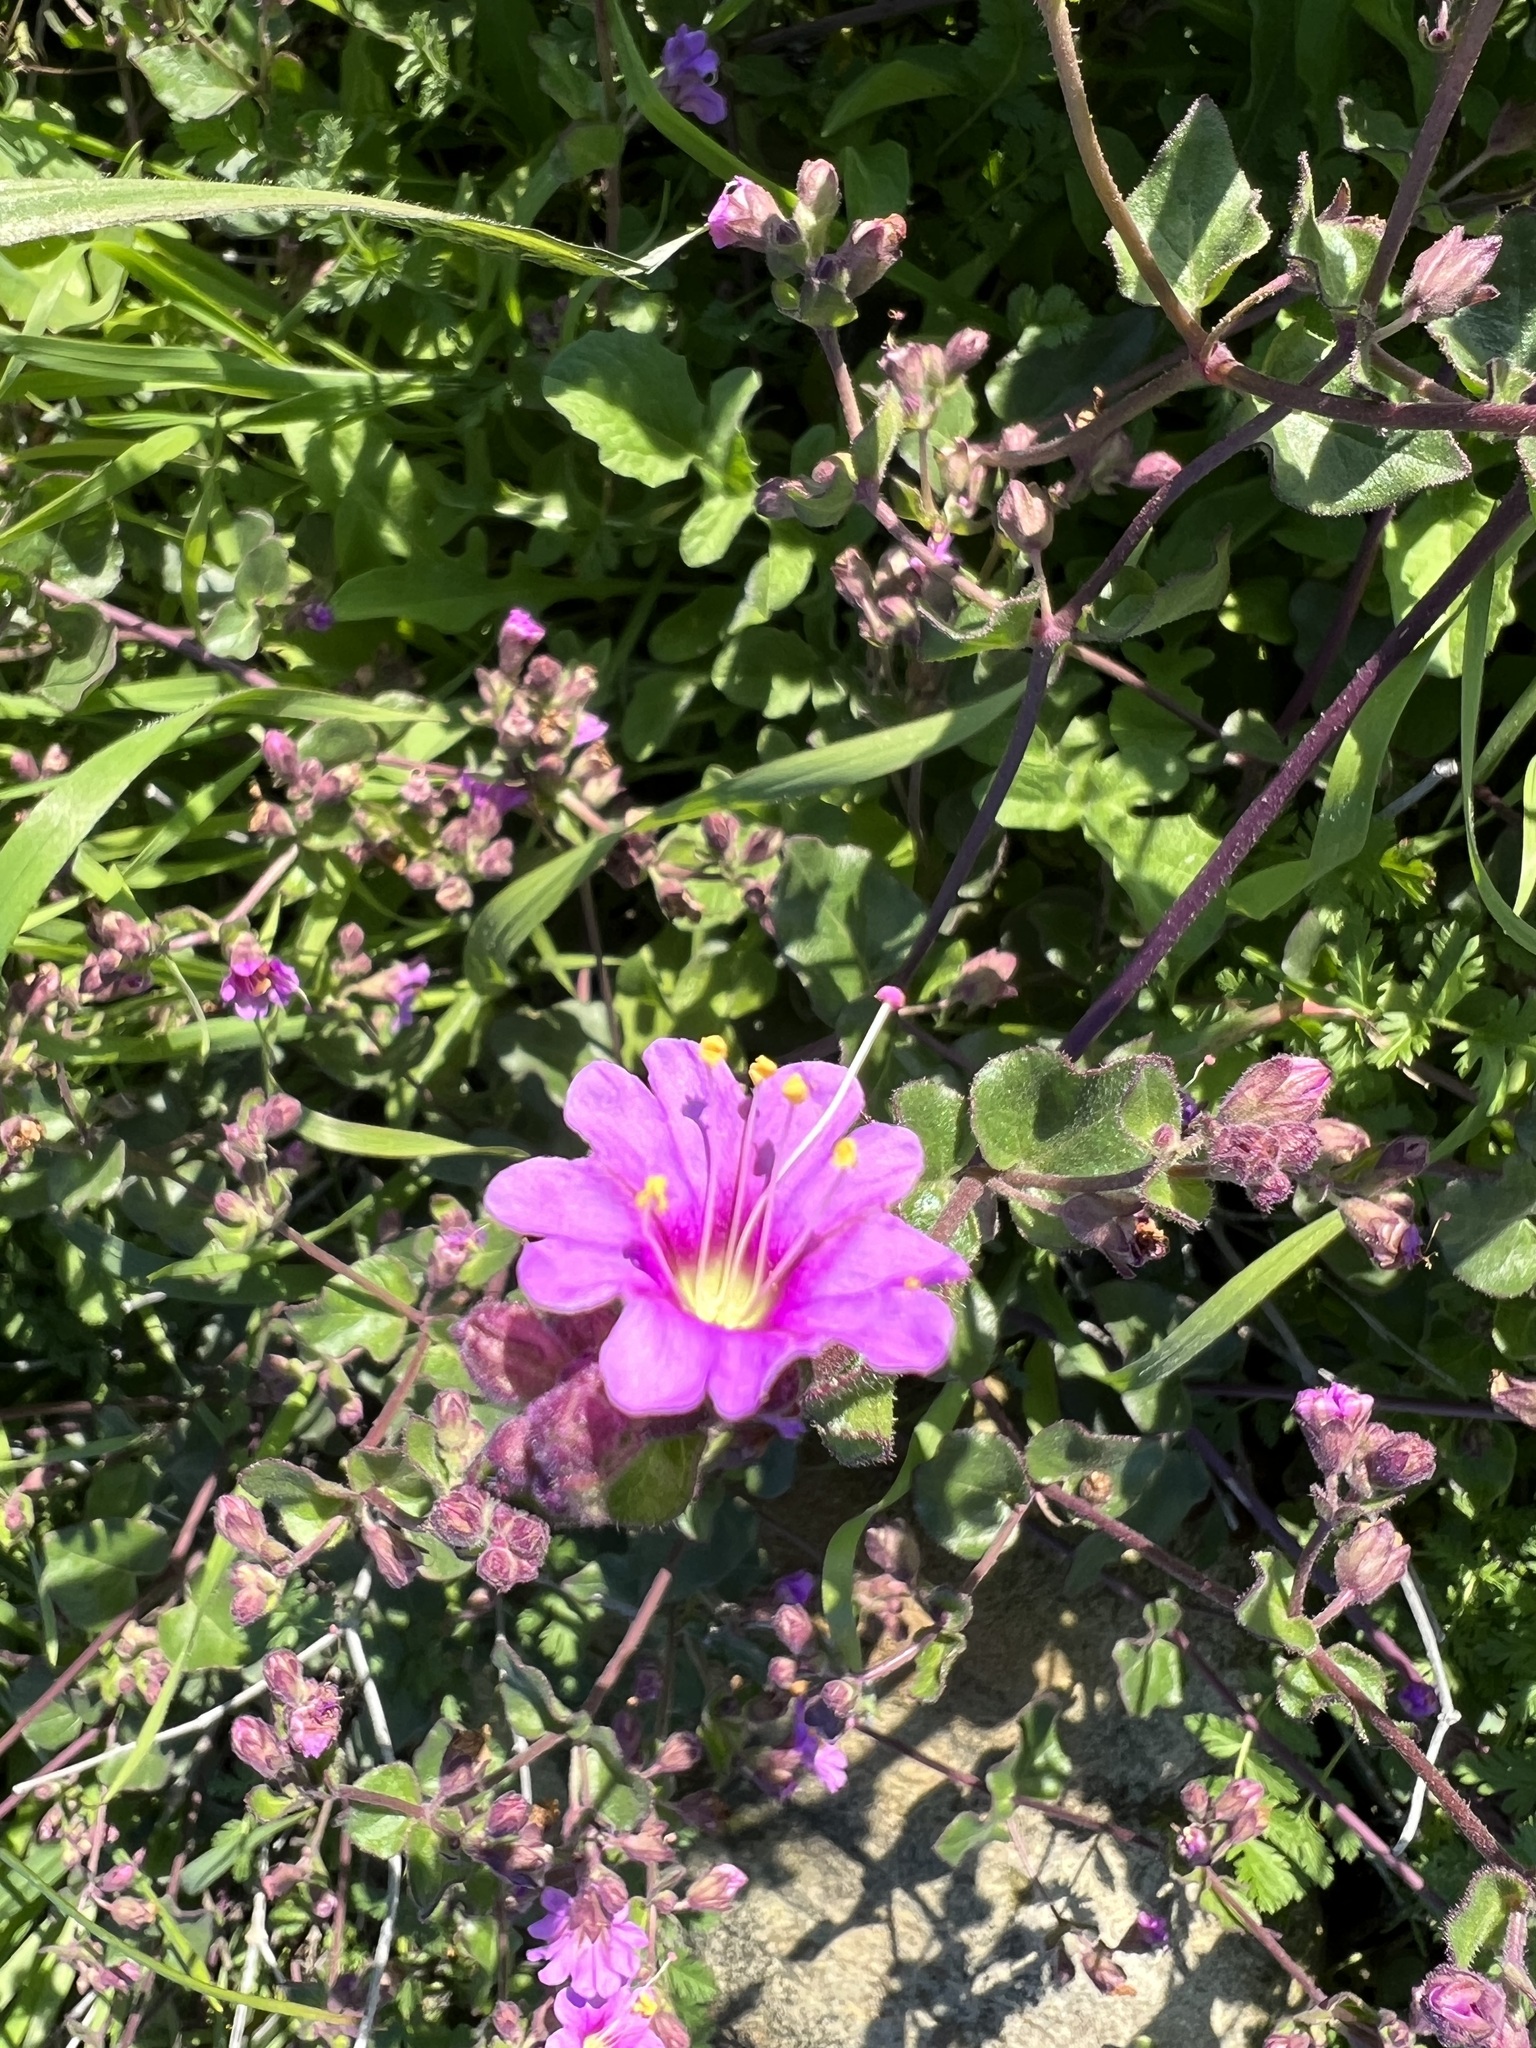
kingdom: Plantae
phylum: Tracheophyta
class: Magnoliopsida
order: Caryophyllales
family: Nyctaginaceae
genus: Mirabilis
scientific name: Mirabilis laevis
